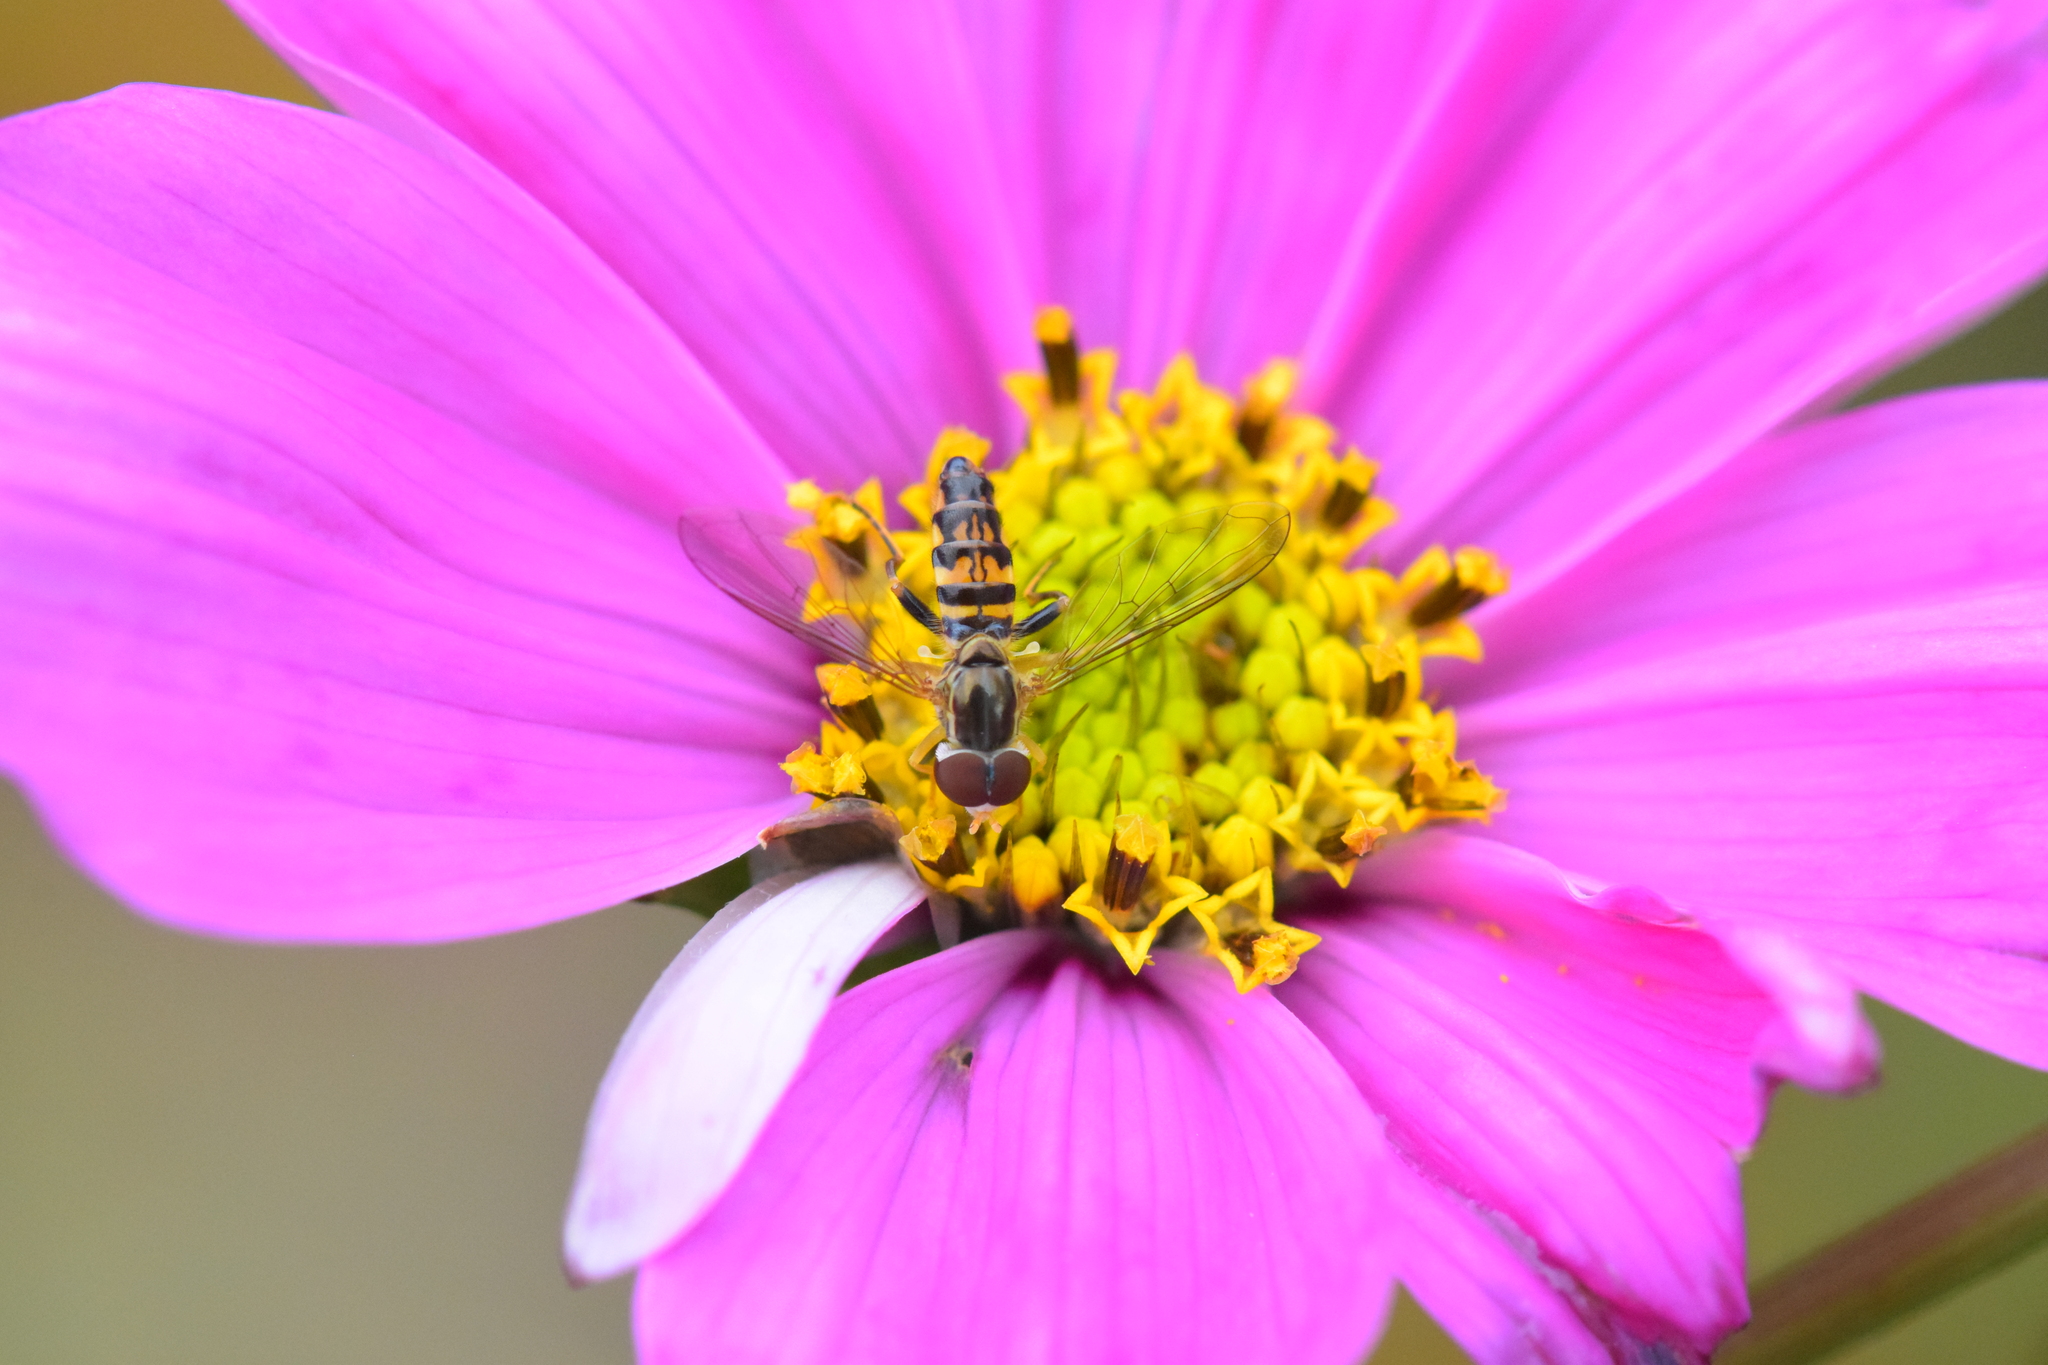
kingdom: Animalia
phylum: Arthropoda
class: Insecta
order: Diptera
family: Syrphidae
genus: Toxomerus
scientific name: Toxomerus geminatus
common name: Eastern calligrapher
